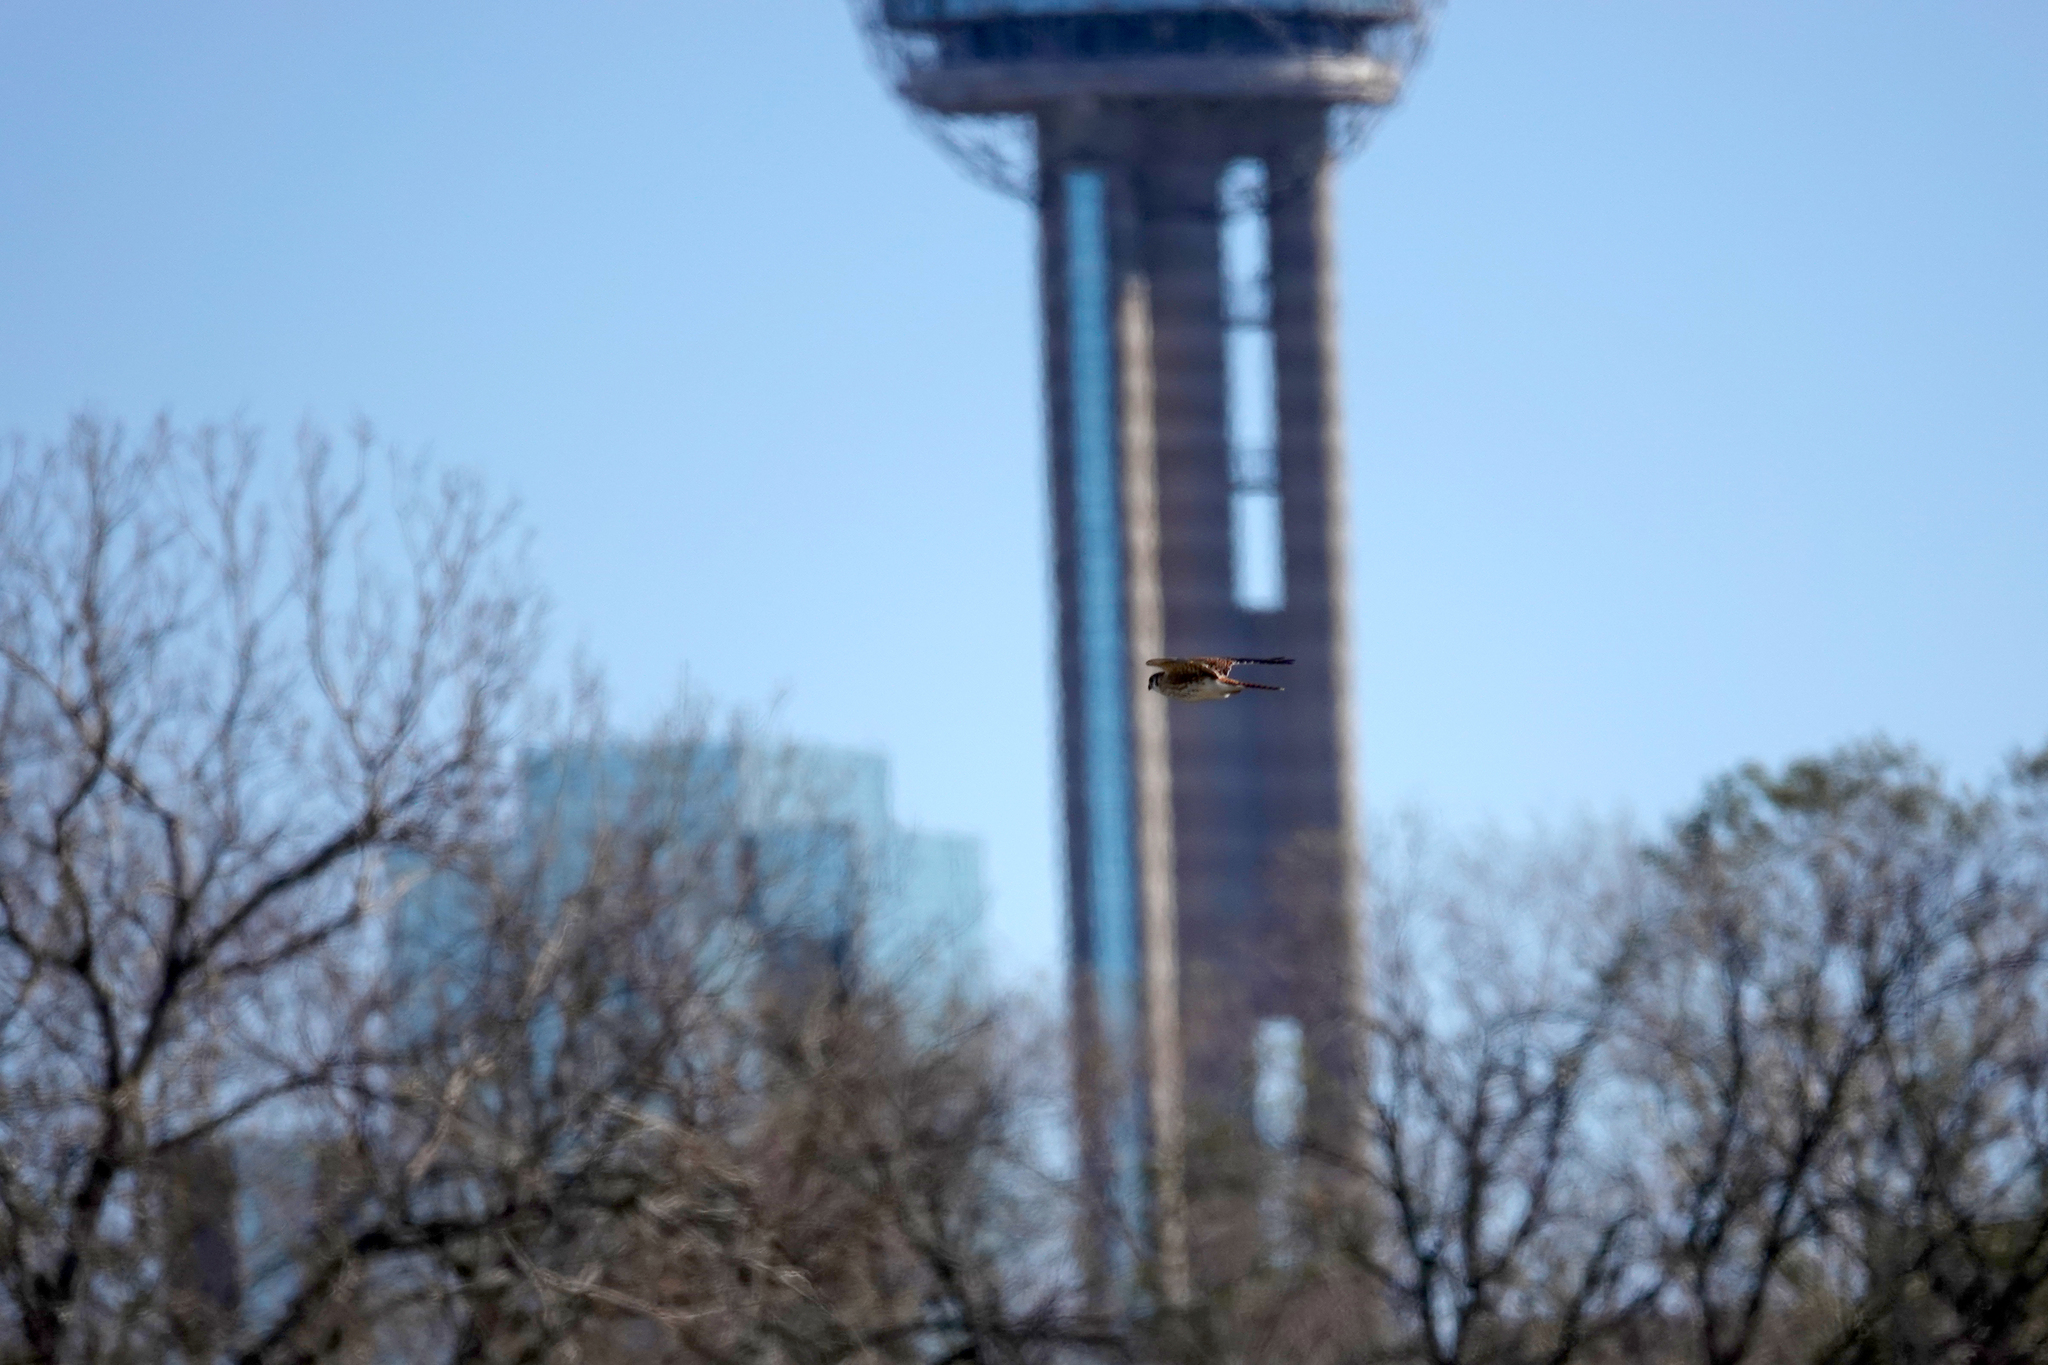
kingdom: Animalia
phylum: Chordata
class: Aves
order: Falconiformes
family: Falconidae
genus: Falco
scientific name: Falco sparverius
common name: American kestrel
